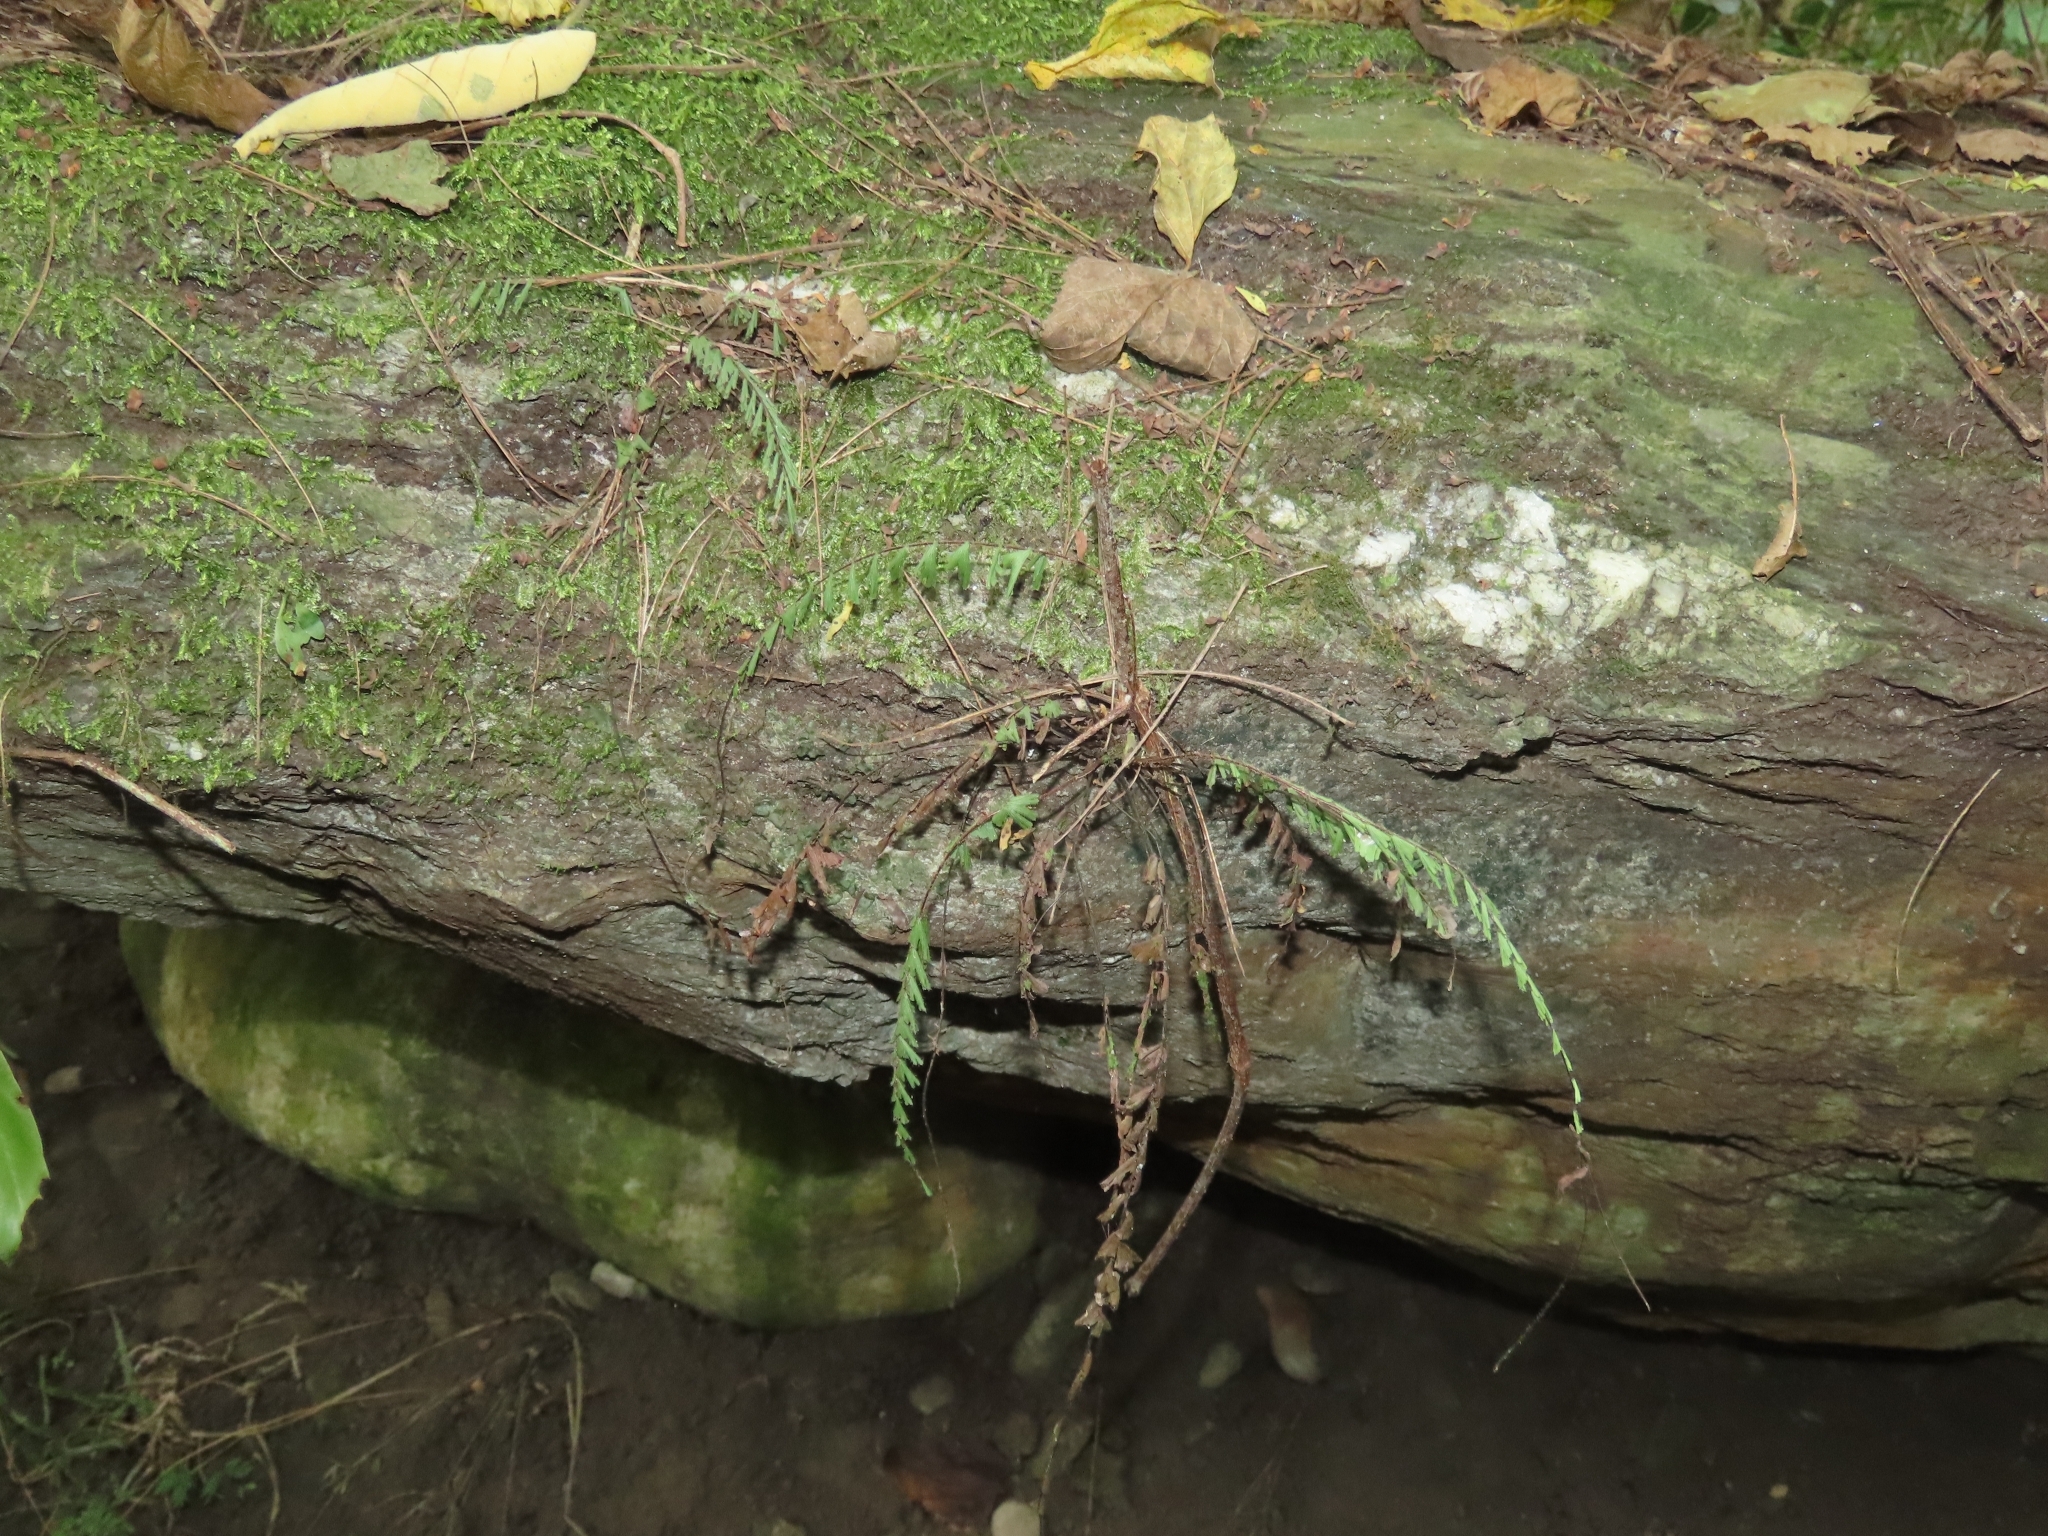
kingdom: Plantae
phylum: Tracheophyta
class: Polypodiopsida
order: Polypodiales
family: Pteridaceae
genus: Adiantum
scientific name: Adiantum ciliatum
